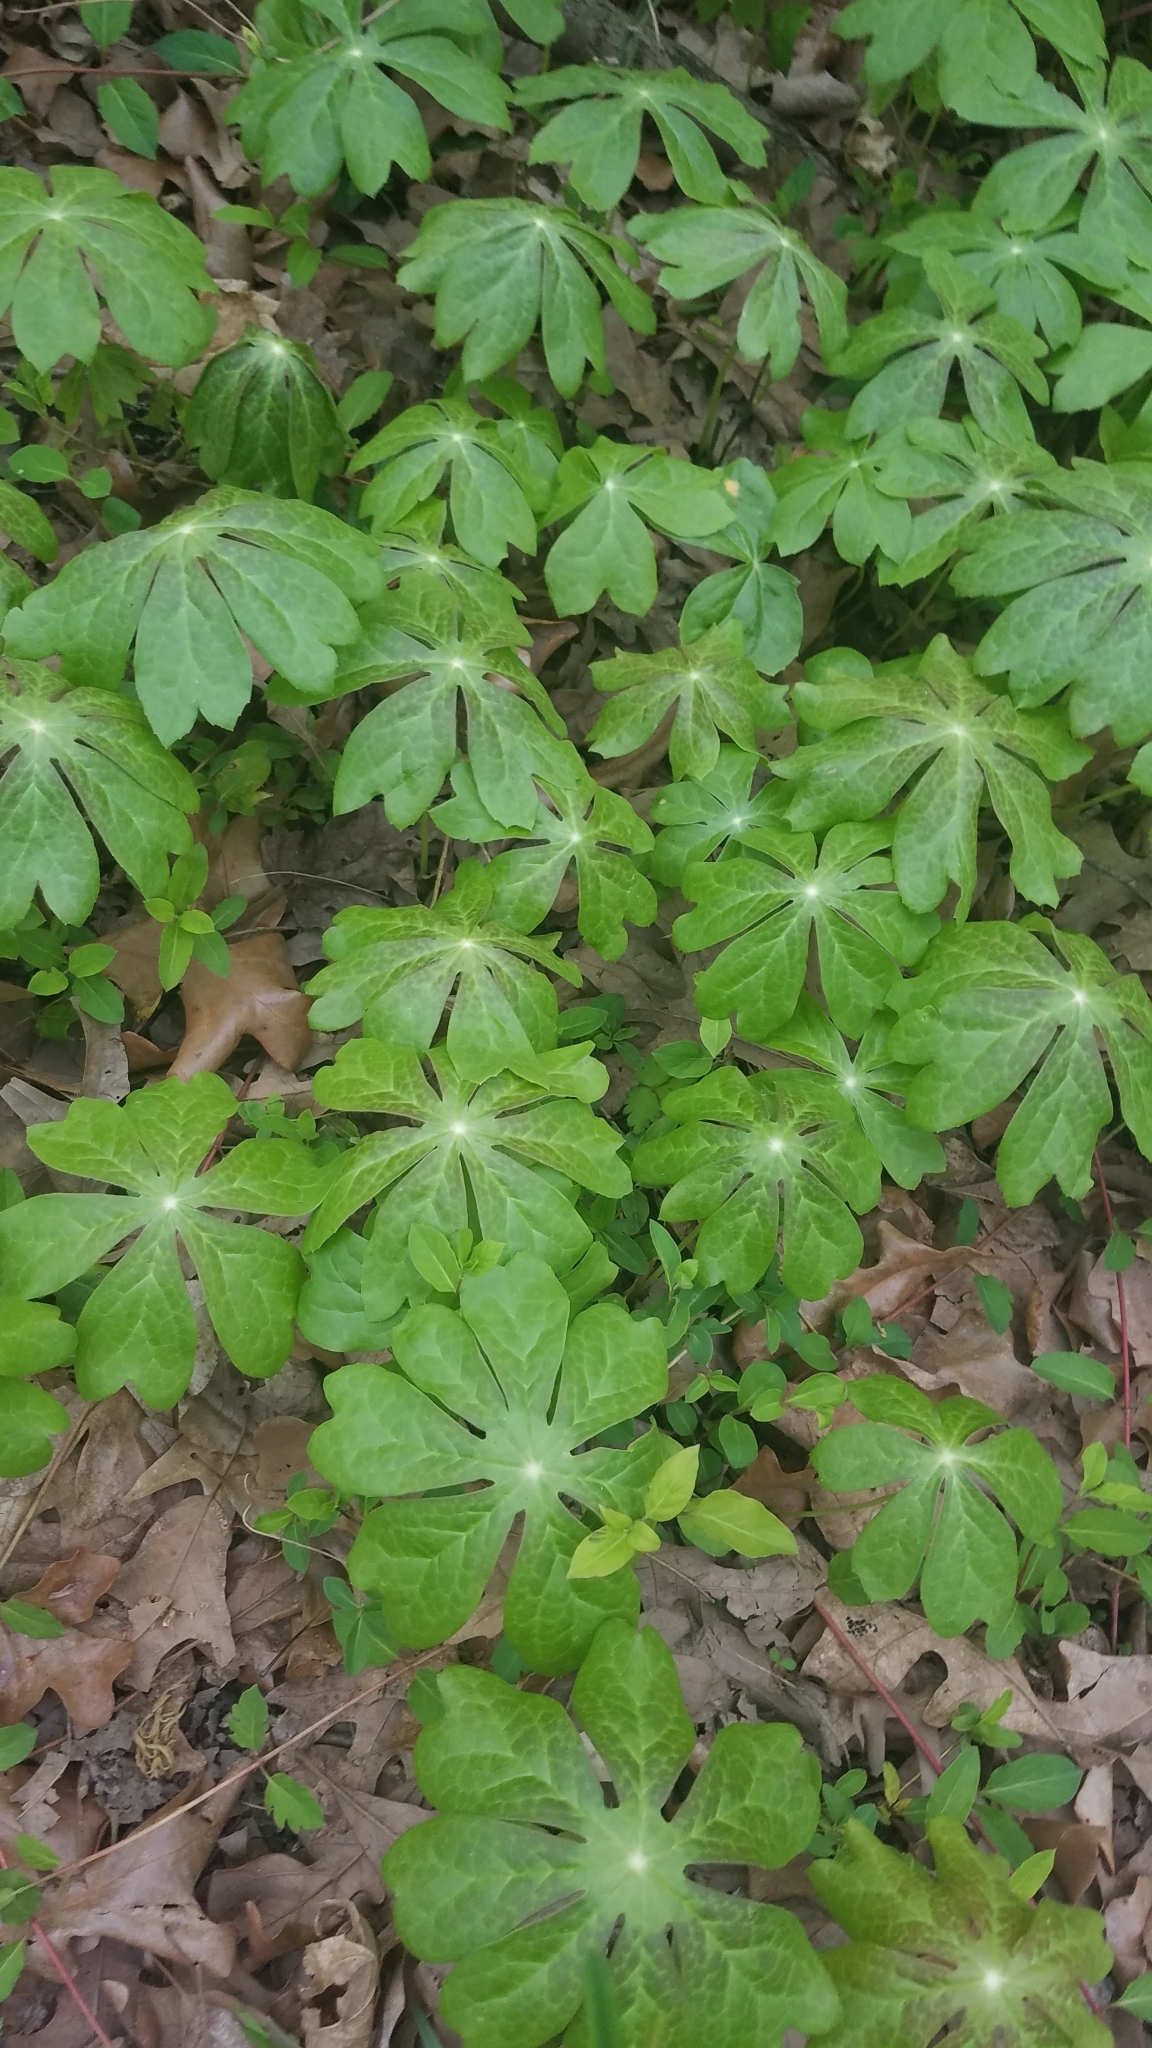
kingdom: Plantae
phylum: Tracheophyta
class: Magnoliopsida
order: Ranunculales
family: Berberidaceae
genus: Podophyllum
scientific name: Podophyllum peltatum
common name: Wild mandrake
